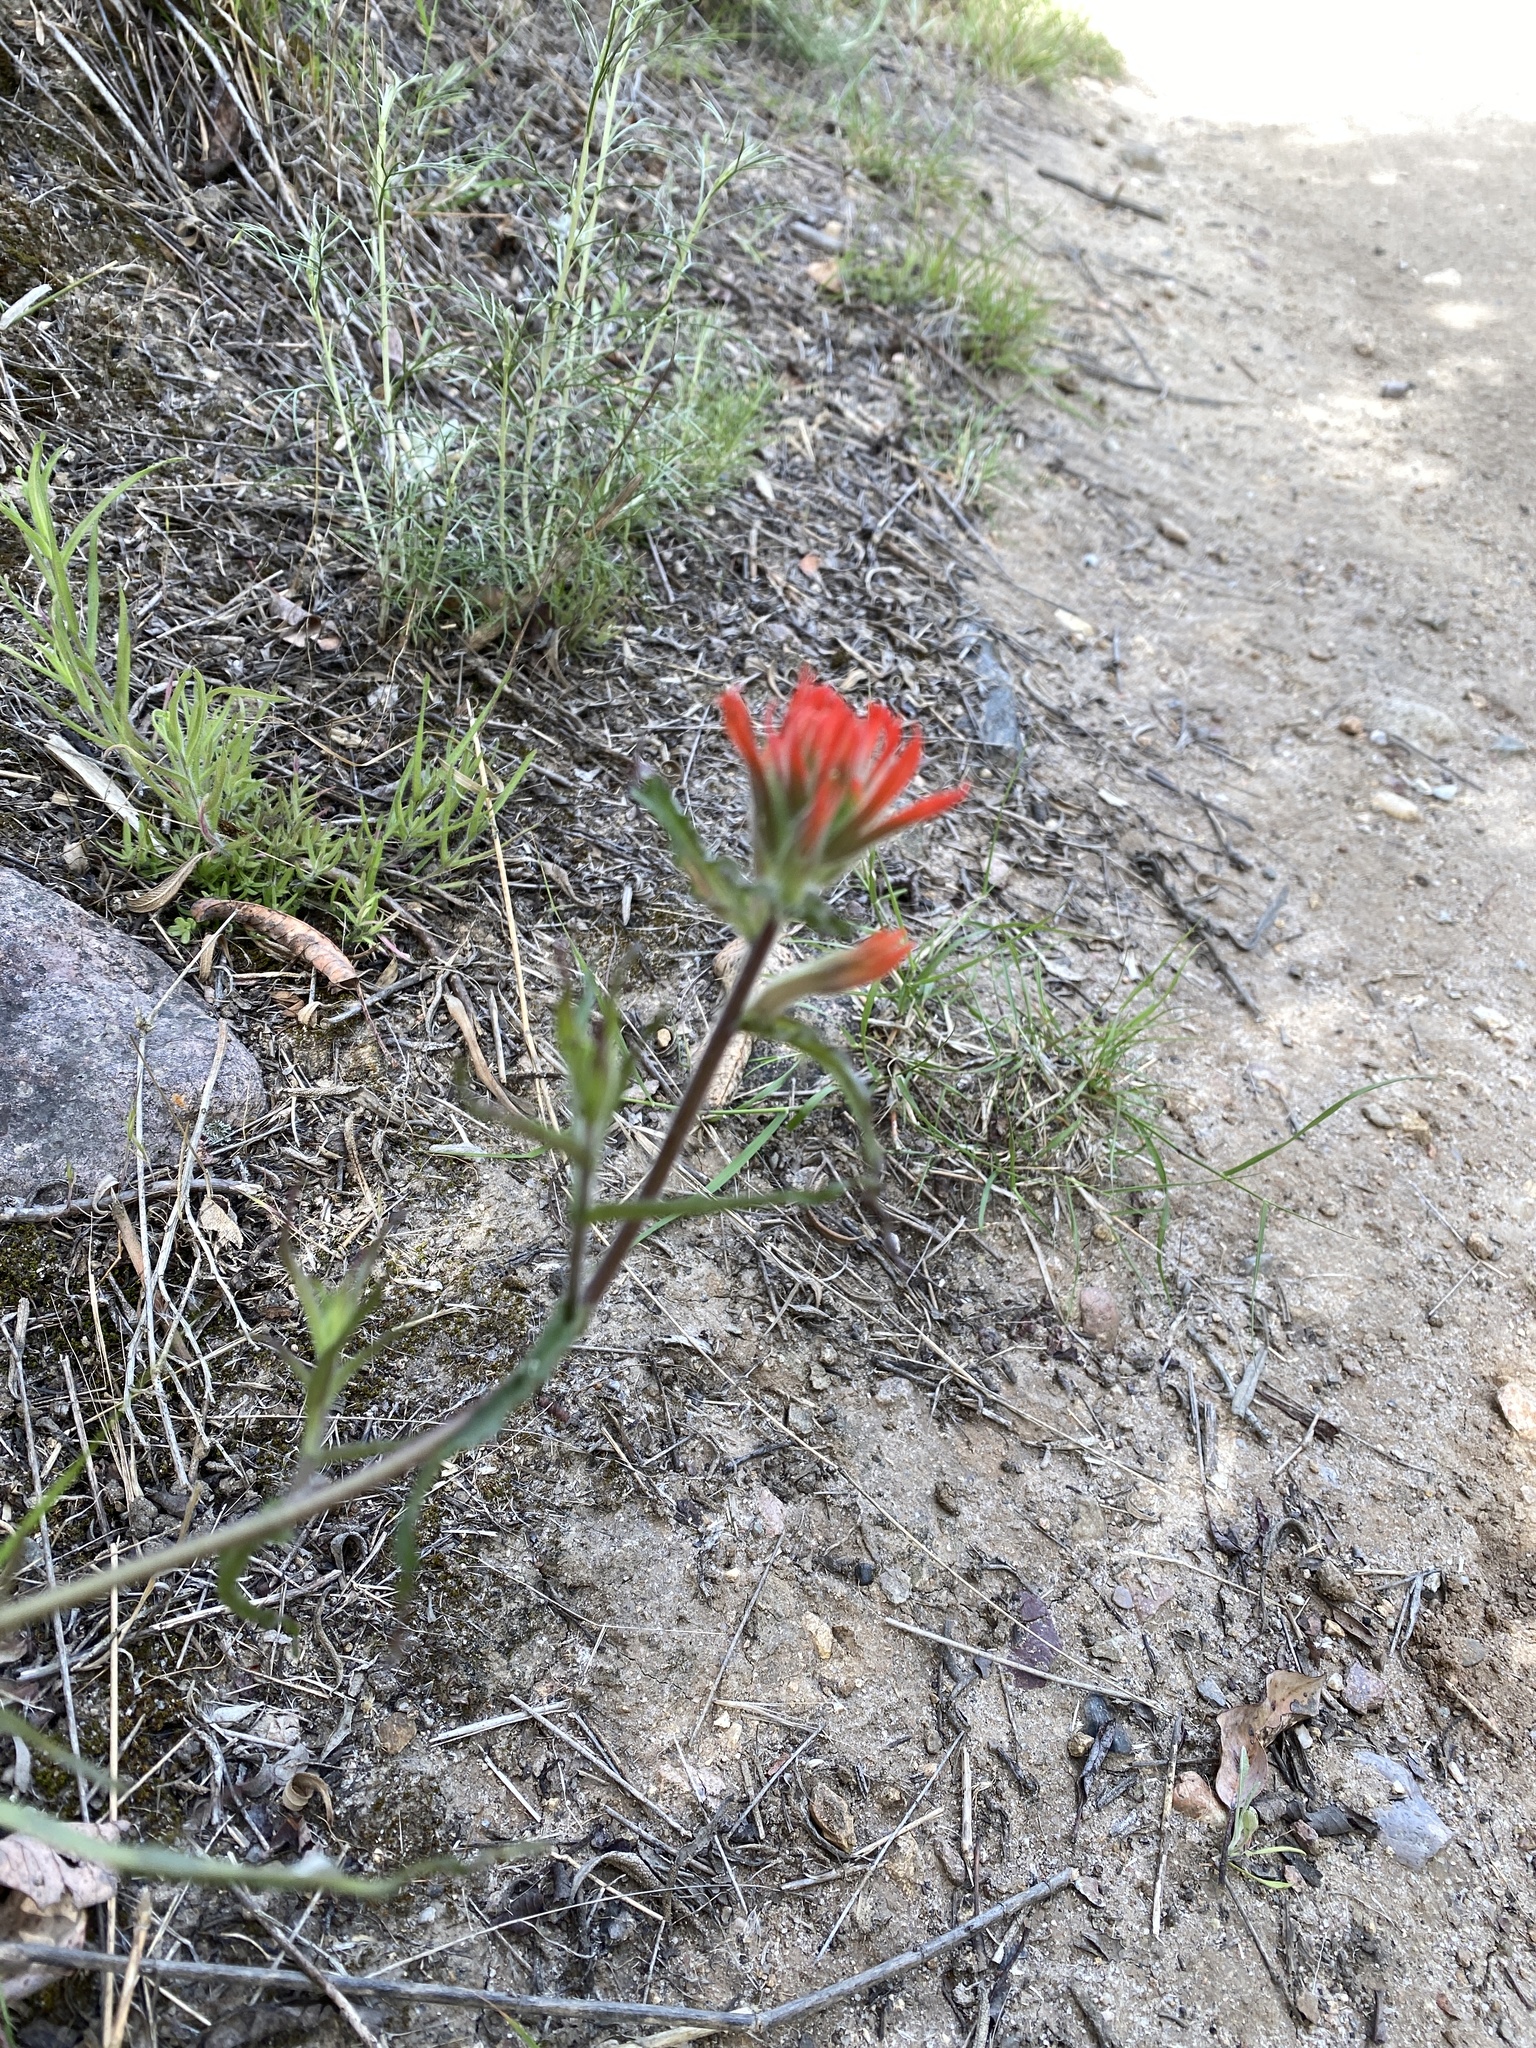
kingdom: Plantae
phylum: Tracheophyta
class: Magnoliopsida
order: Lamiales
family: Orobanchaceae
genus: Castilleja
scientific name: Castilleja affinis
